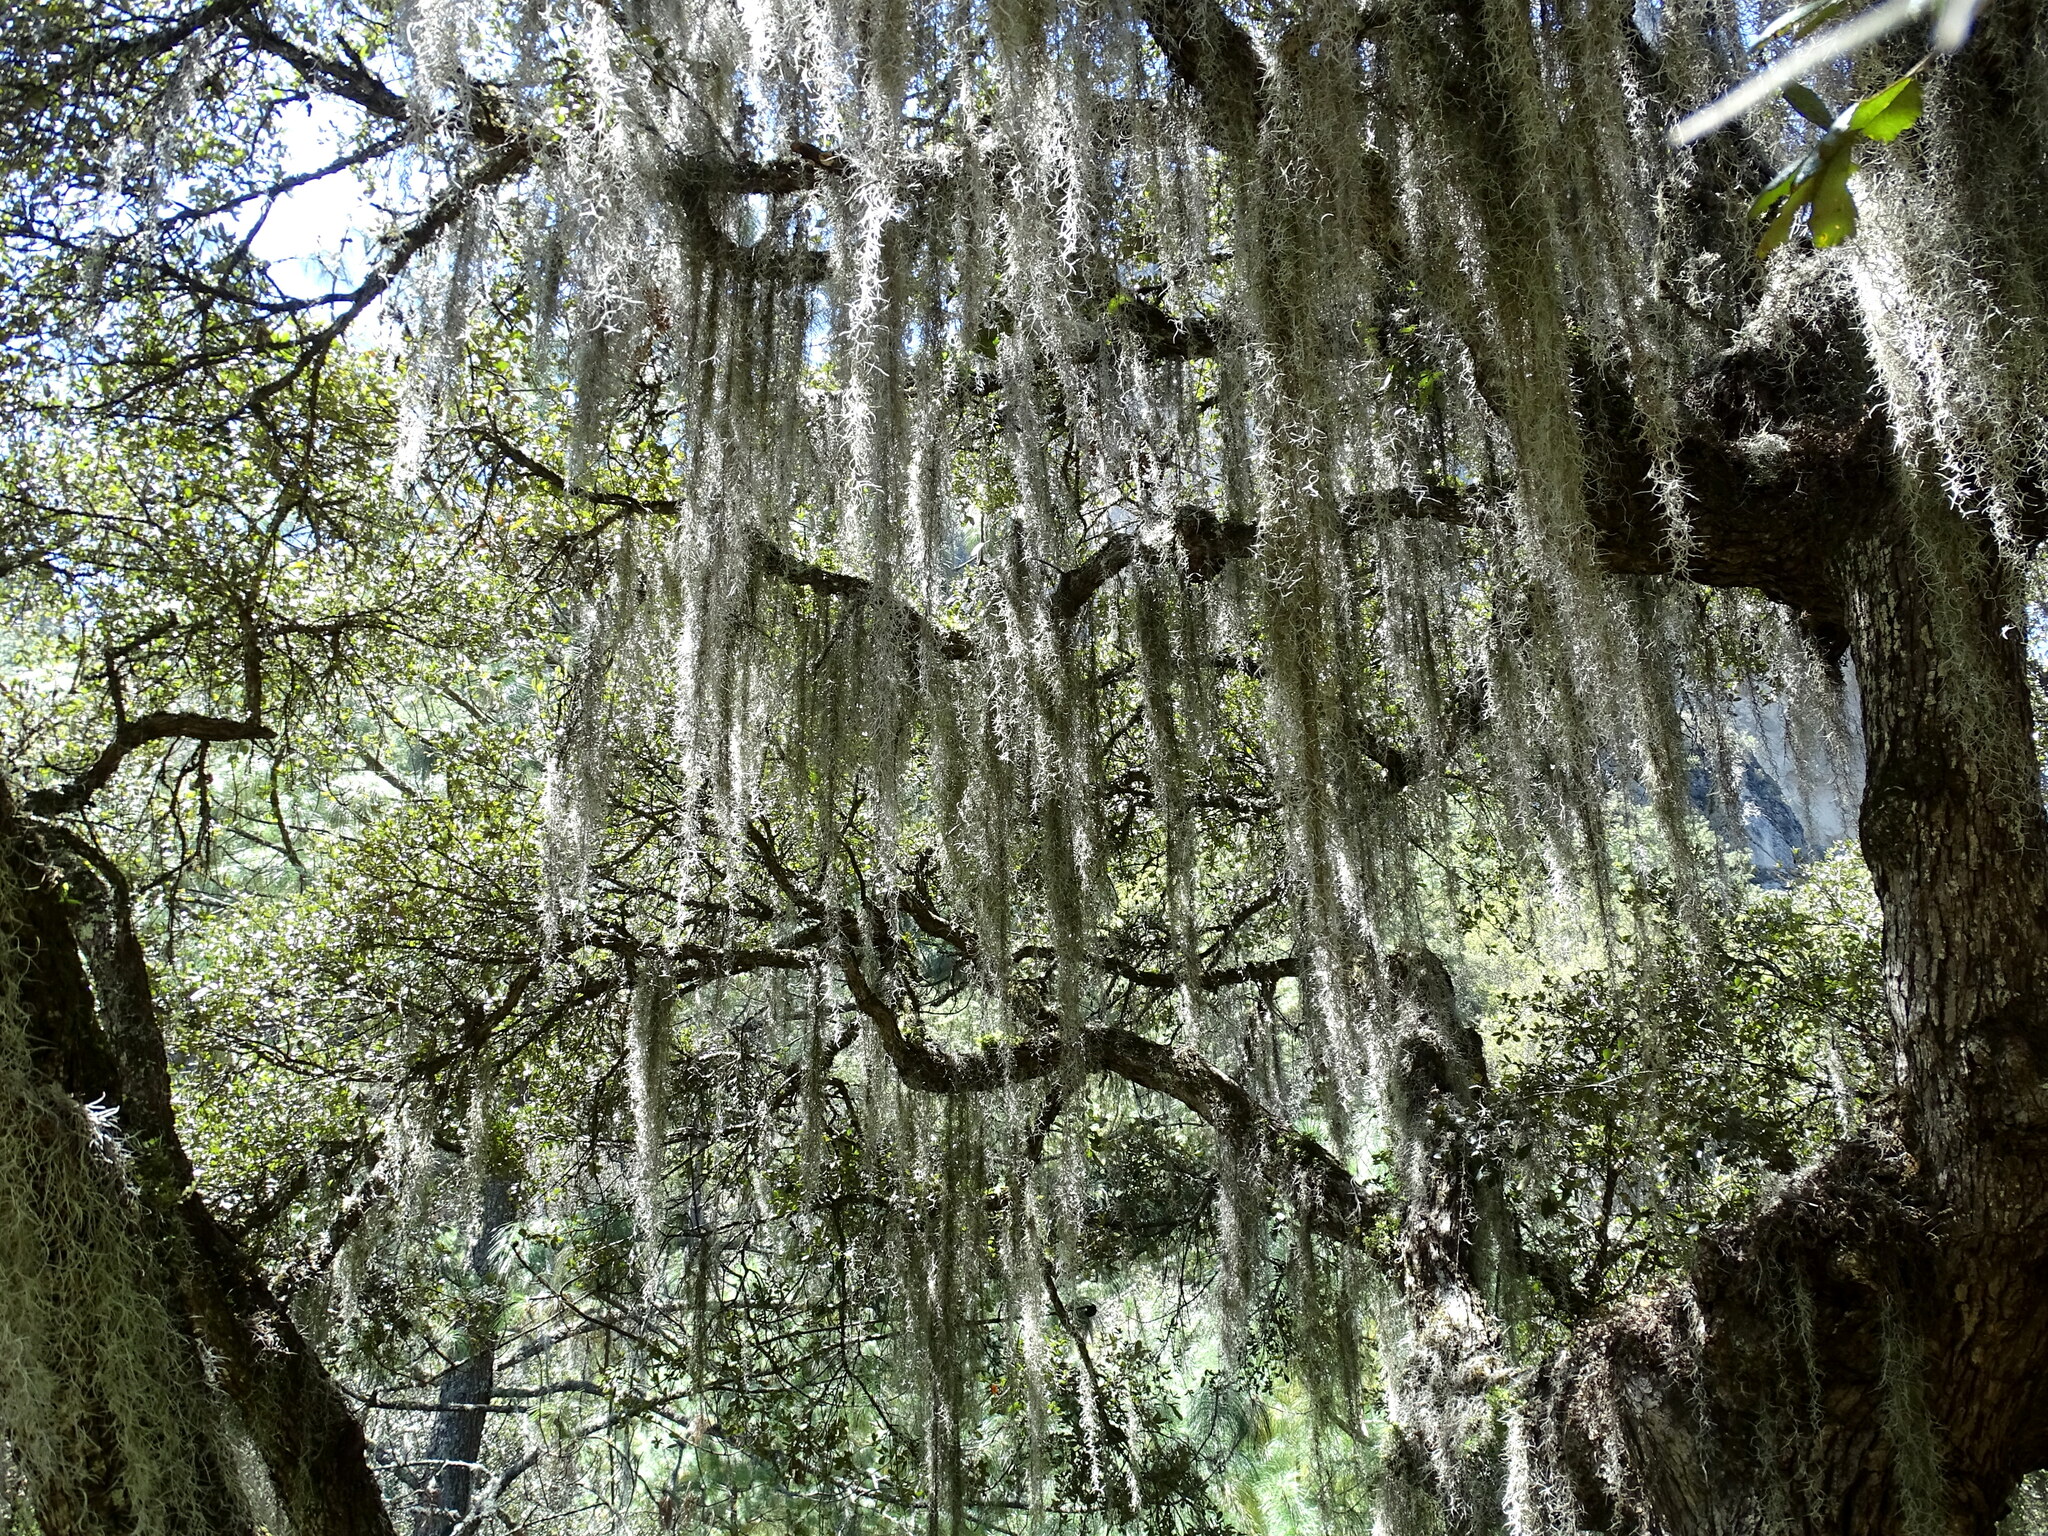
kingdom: Plantae
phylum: Tracheophyta
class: Liliopsida
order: Poales
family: Bromeliaceae
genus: Tillandsia
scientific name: Tillandsia usneoides
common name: Spanish moss
